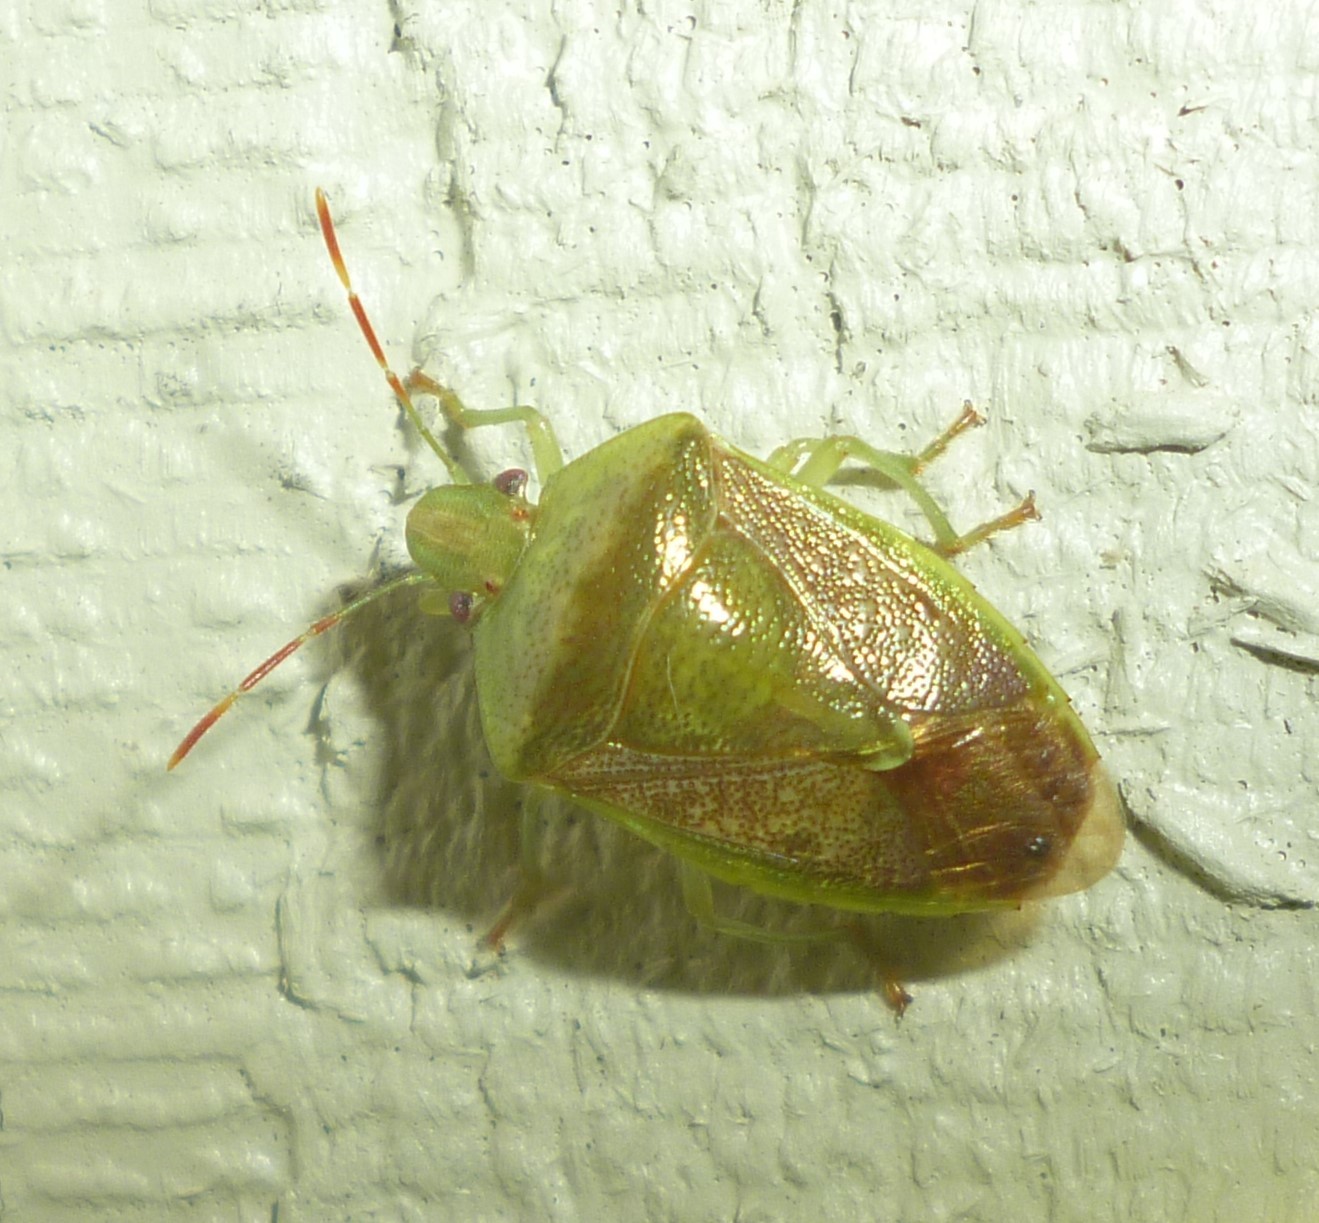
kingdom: Animalia
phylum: Arthropoda
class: Insecta
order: Hemiptera
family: Pentatomidae
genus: Banasa
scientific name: Banasa calva
